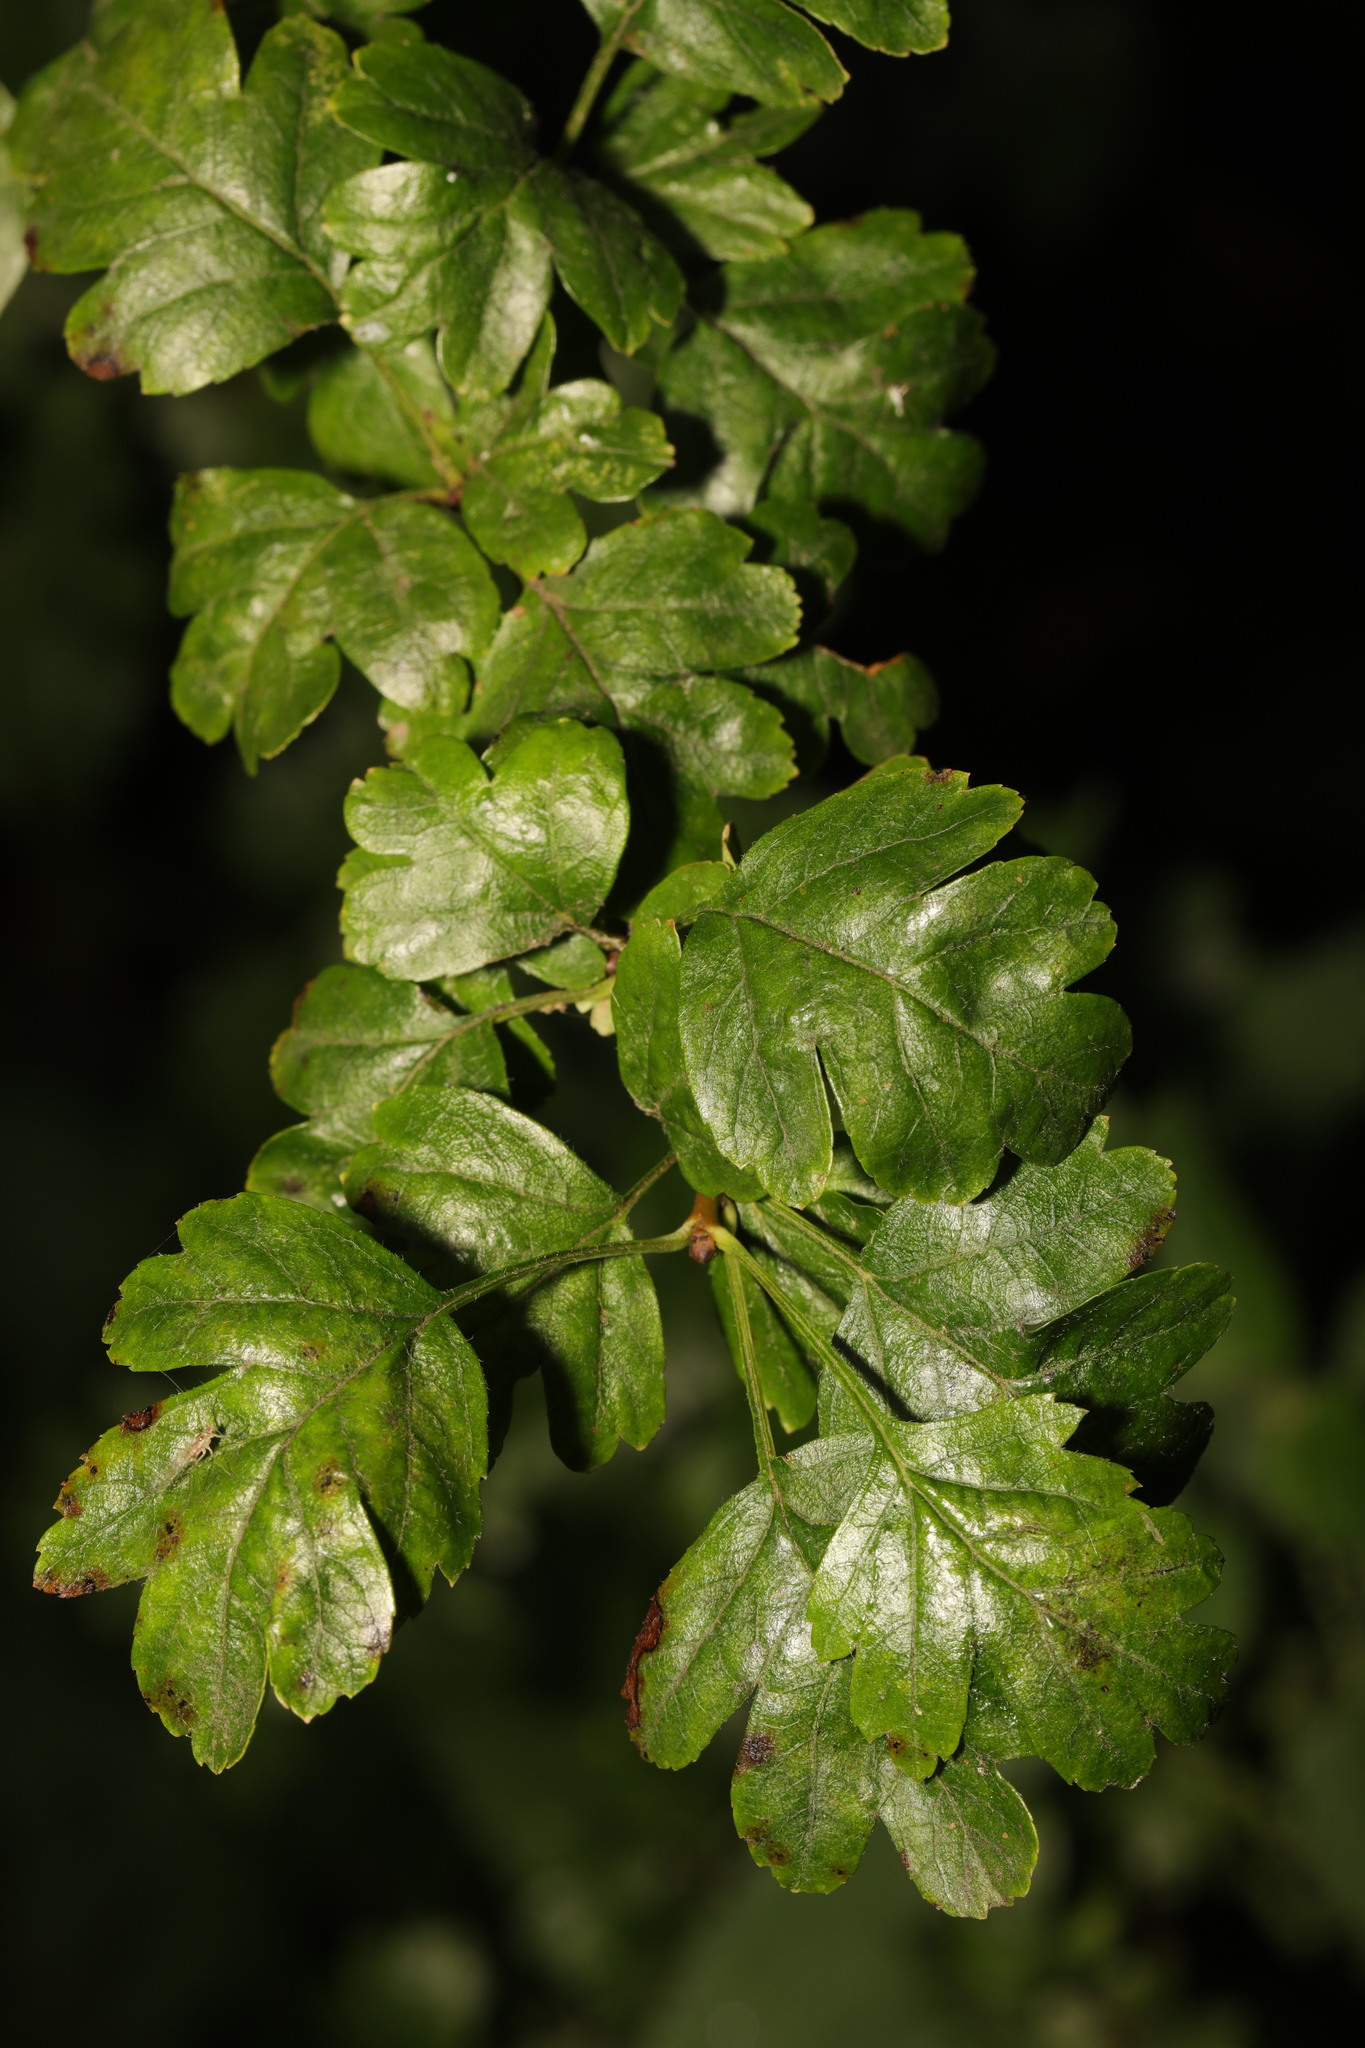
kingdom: Plantae
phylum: Tracheophyta
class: Magnoliopsida
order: Rosales
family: Rosaceae
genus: Crataegus
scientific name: Crataegus monogyna
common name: Hawthorn
